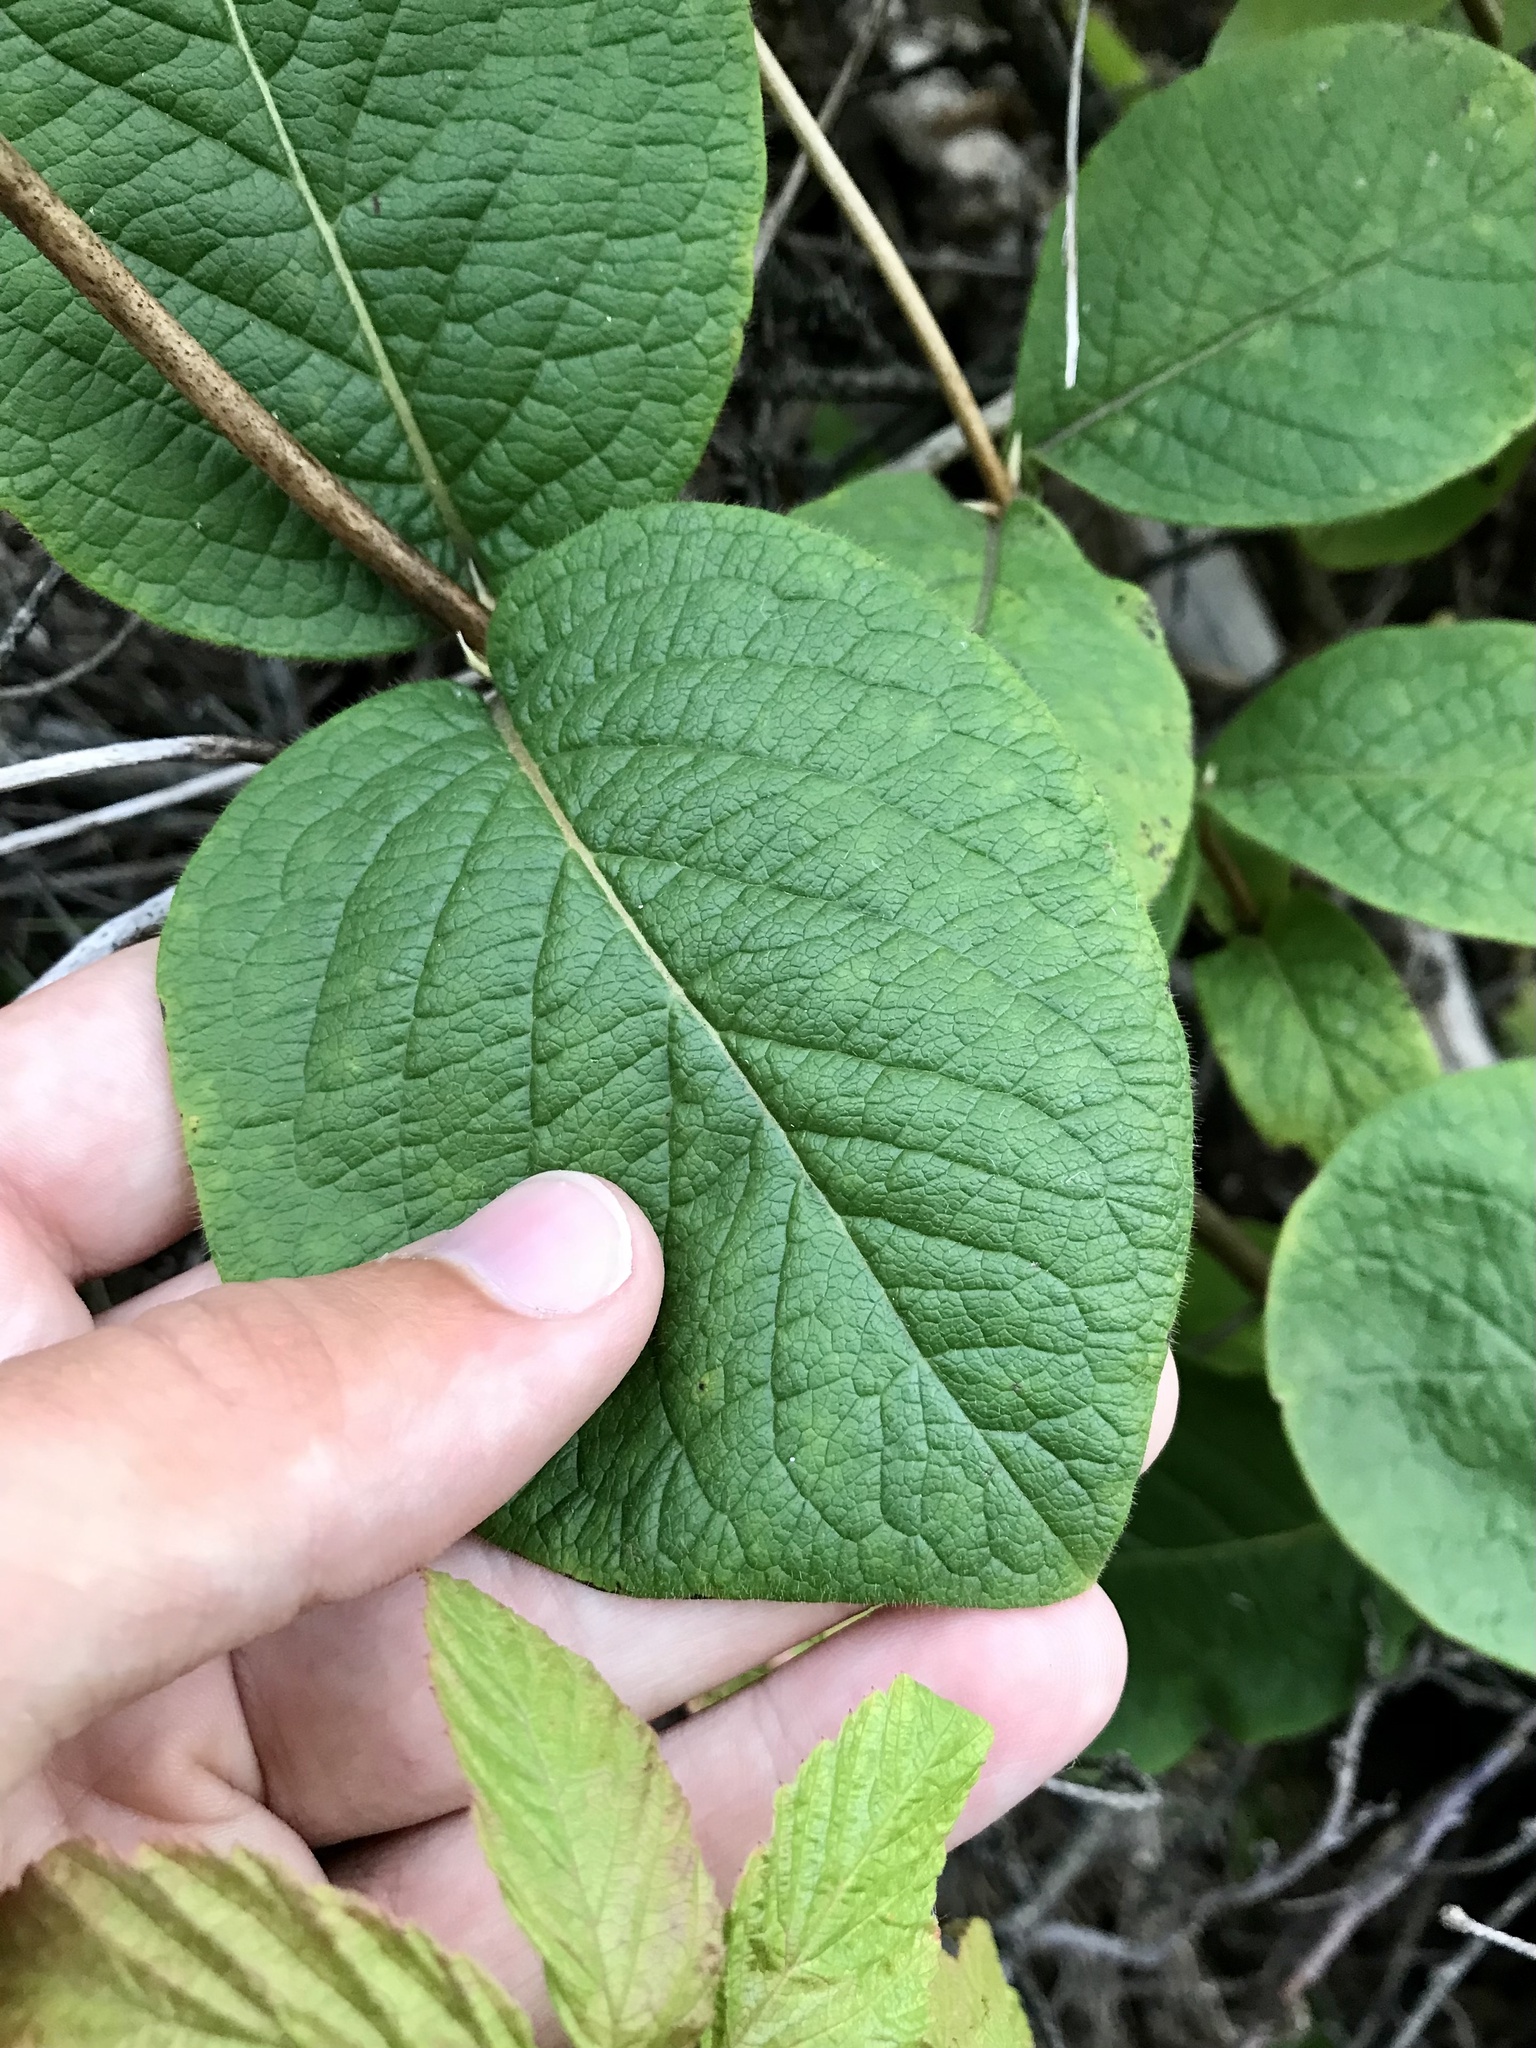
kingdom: Plantae
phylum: Tracheophyta
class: Magnoliopsida
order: Dipsacales
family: Caprifoliaceae
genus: Lonicera
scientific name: Lonicera hirsuta
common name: Hairy honeysuckle
